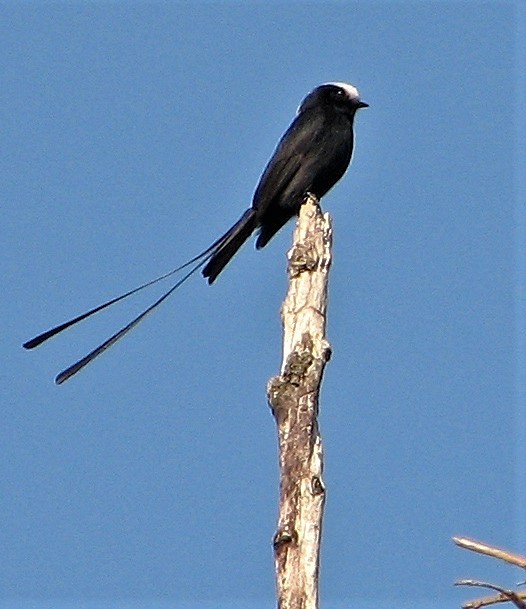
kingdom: Animalia
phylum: Chordata
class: Aves
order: Passeriformes
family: Tyrannidae
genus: Colonia
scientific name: Colonia colonus
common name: Long-tailed tyrant
